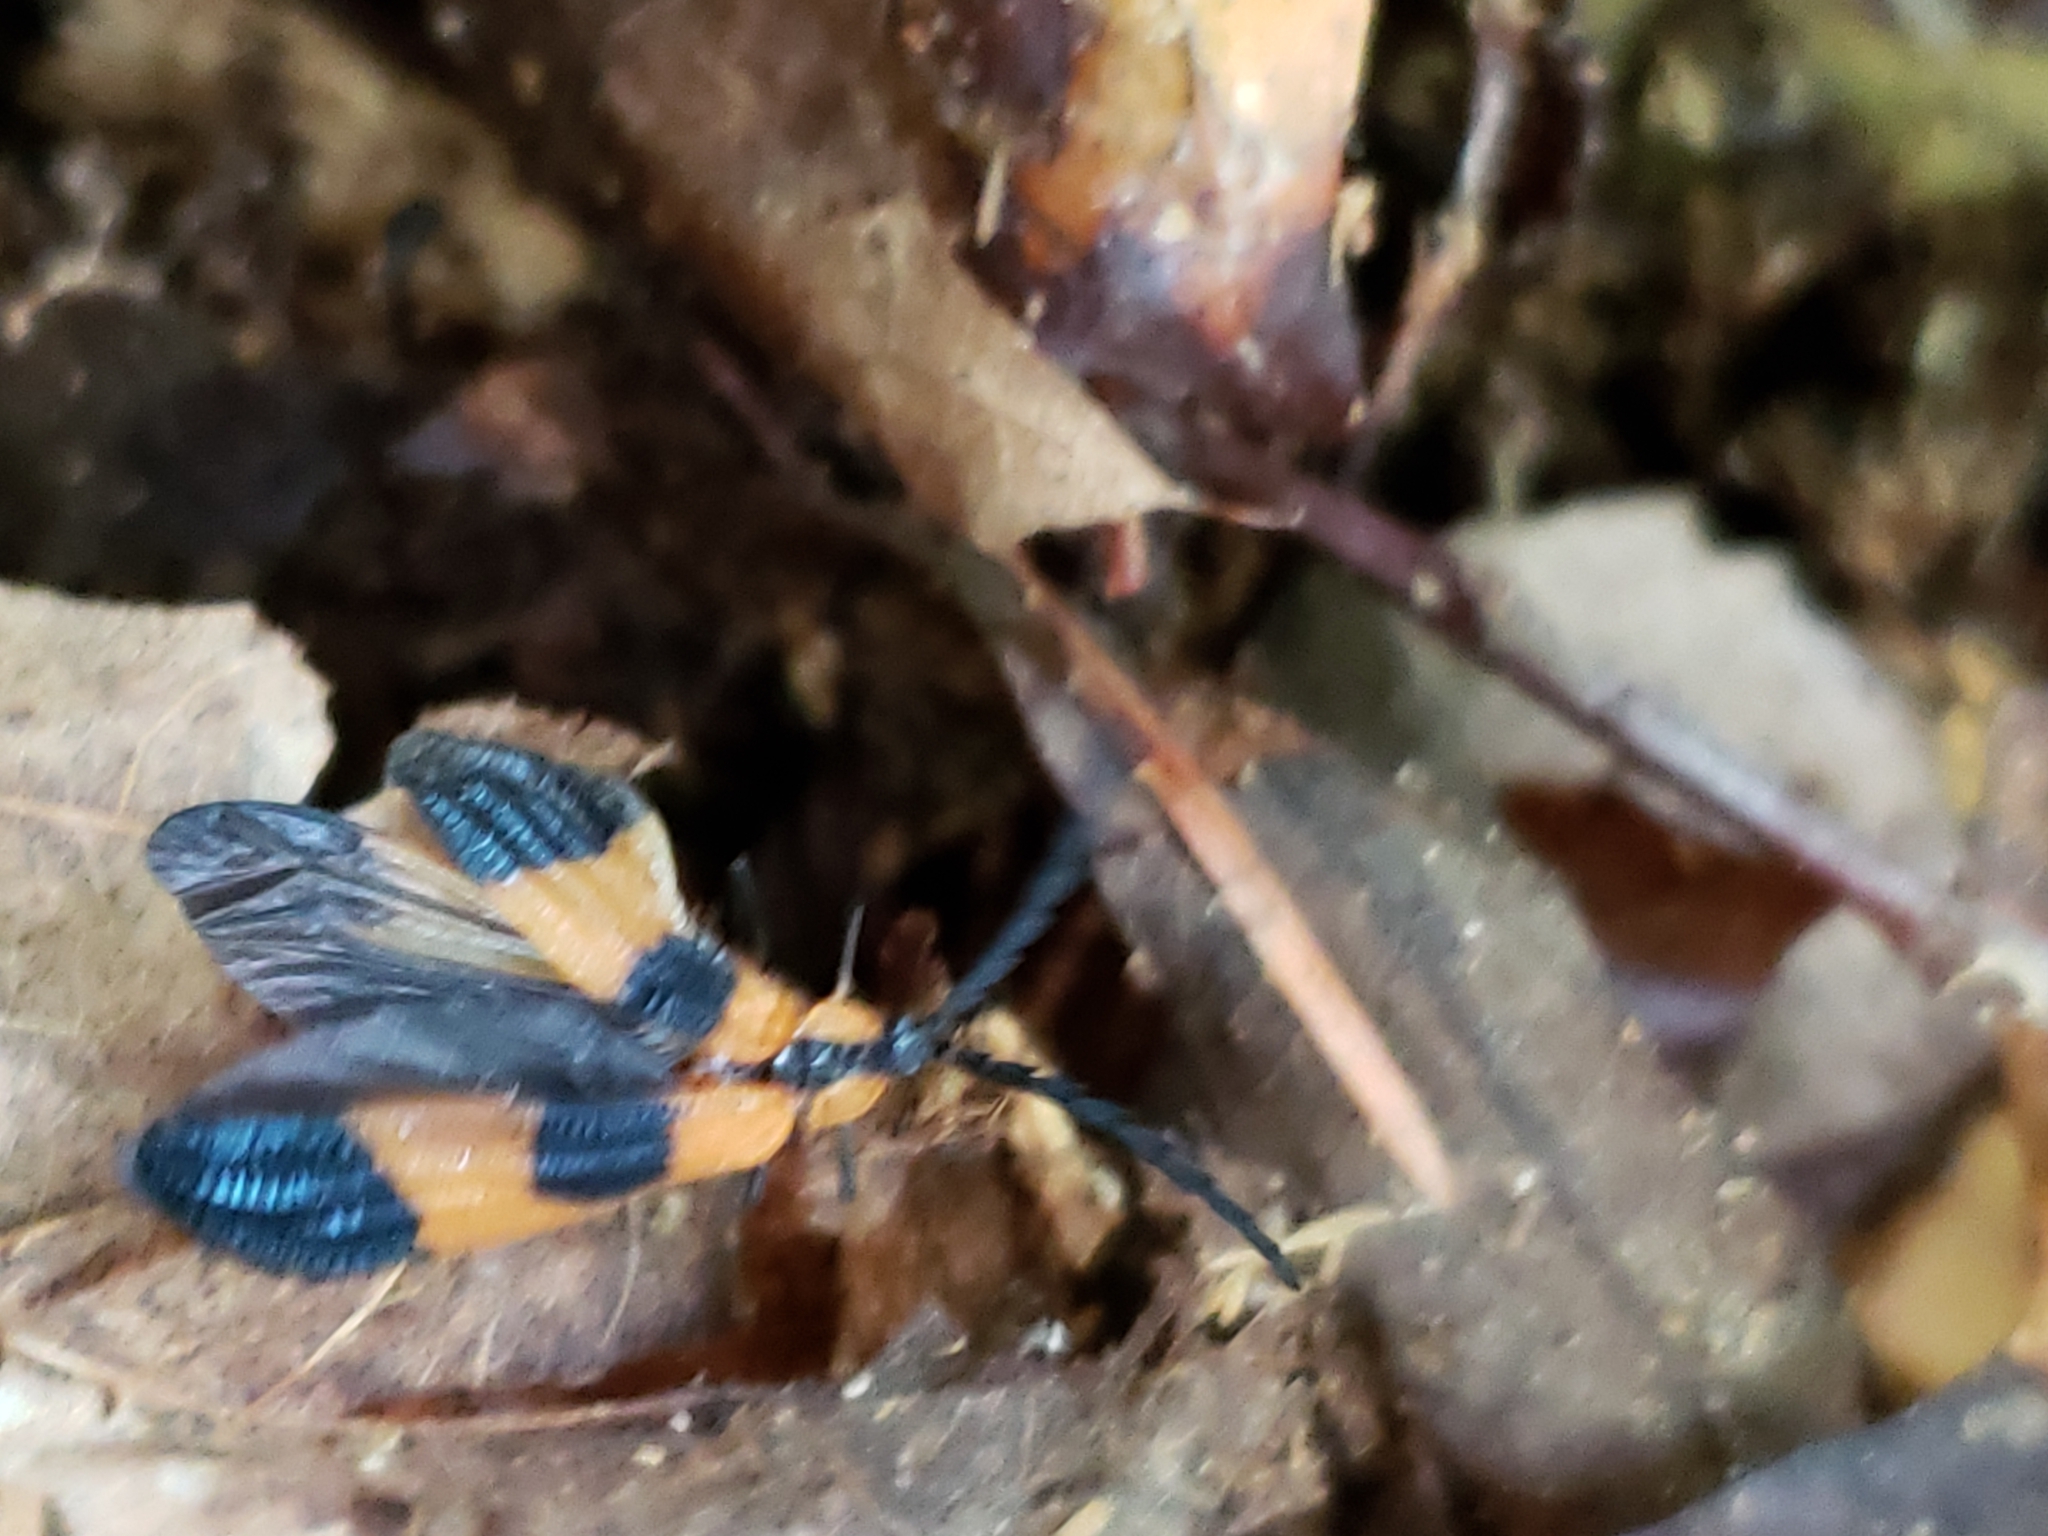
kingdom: Animalia
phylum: Arthropoda
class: Insecta
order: Coleoptera
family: Lycidae
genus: Calopteron
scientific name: Calopteron terminale
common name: End band net-winged beetle
